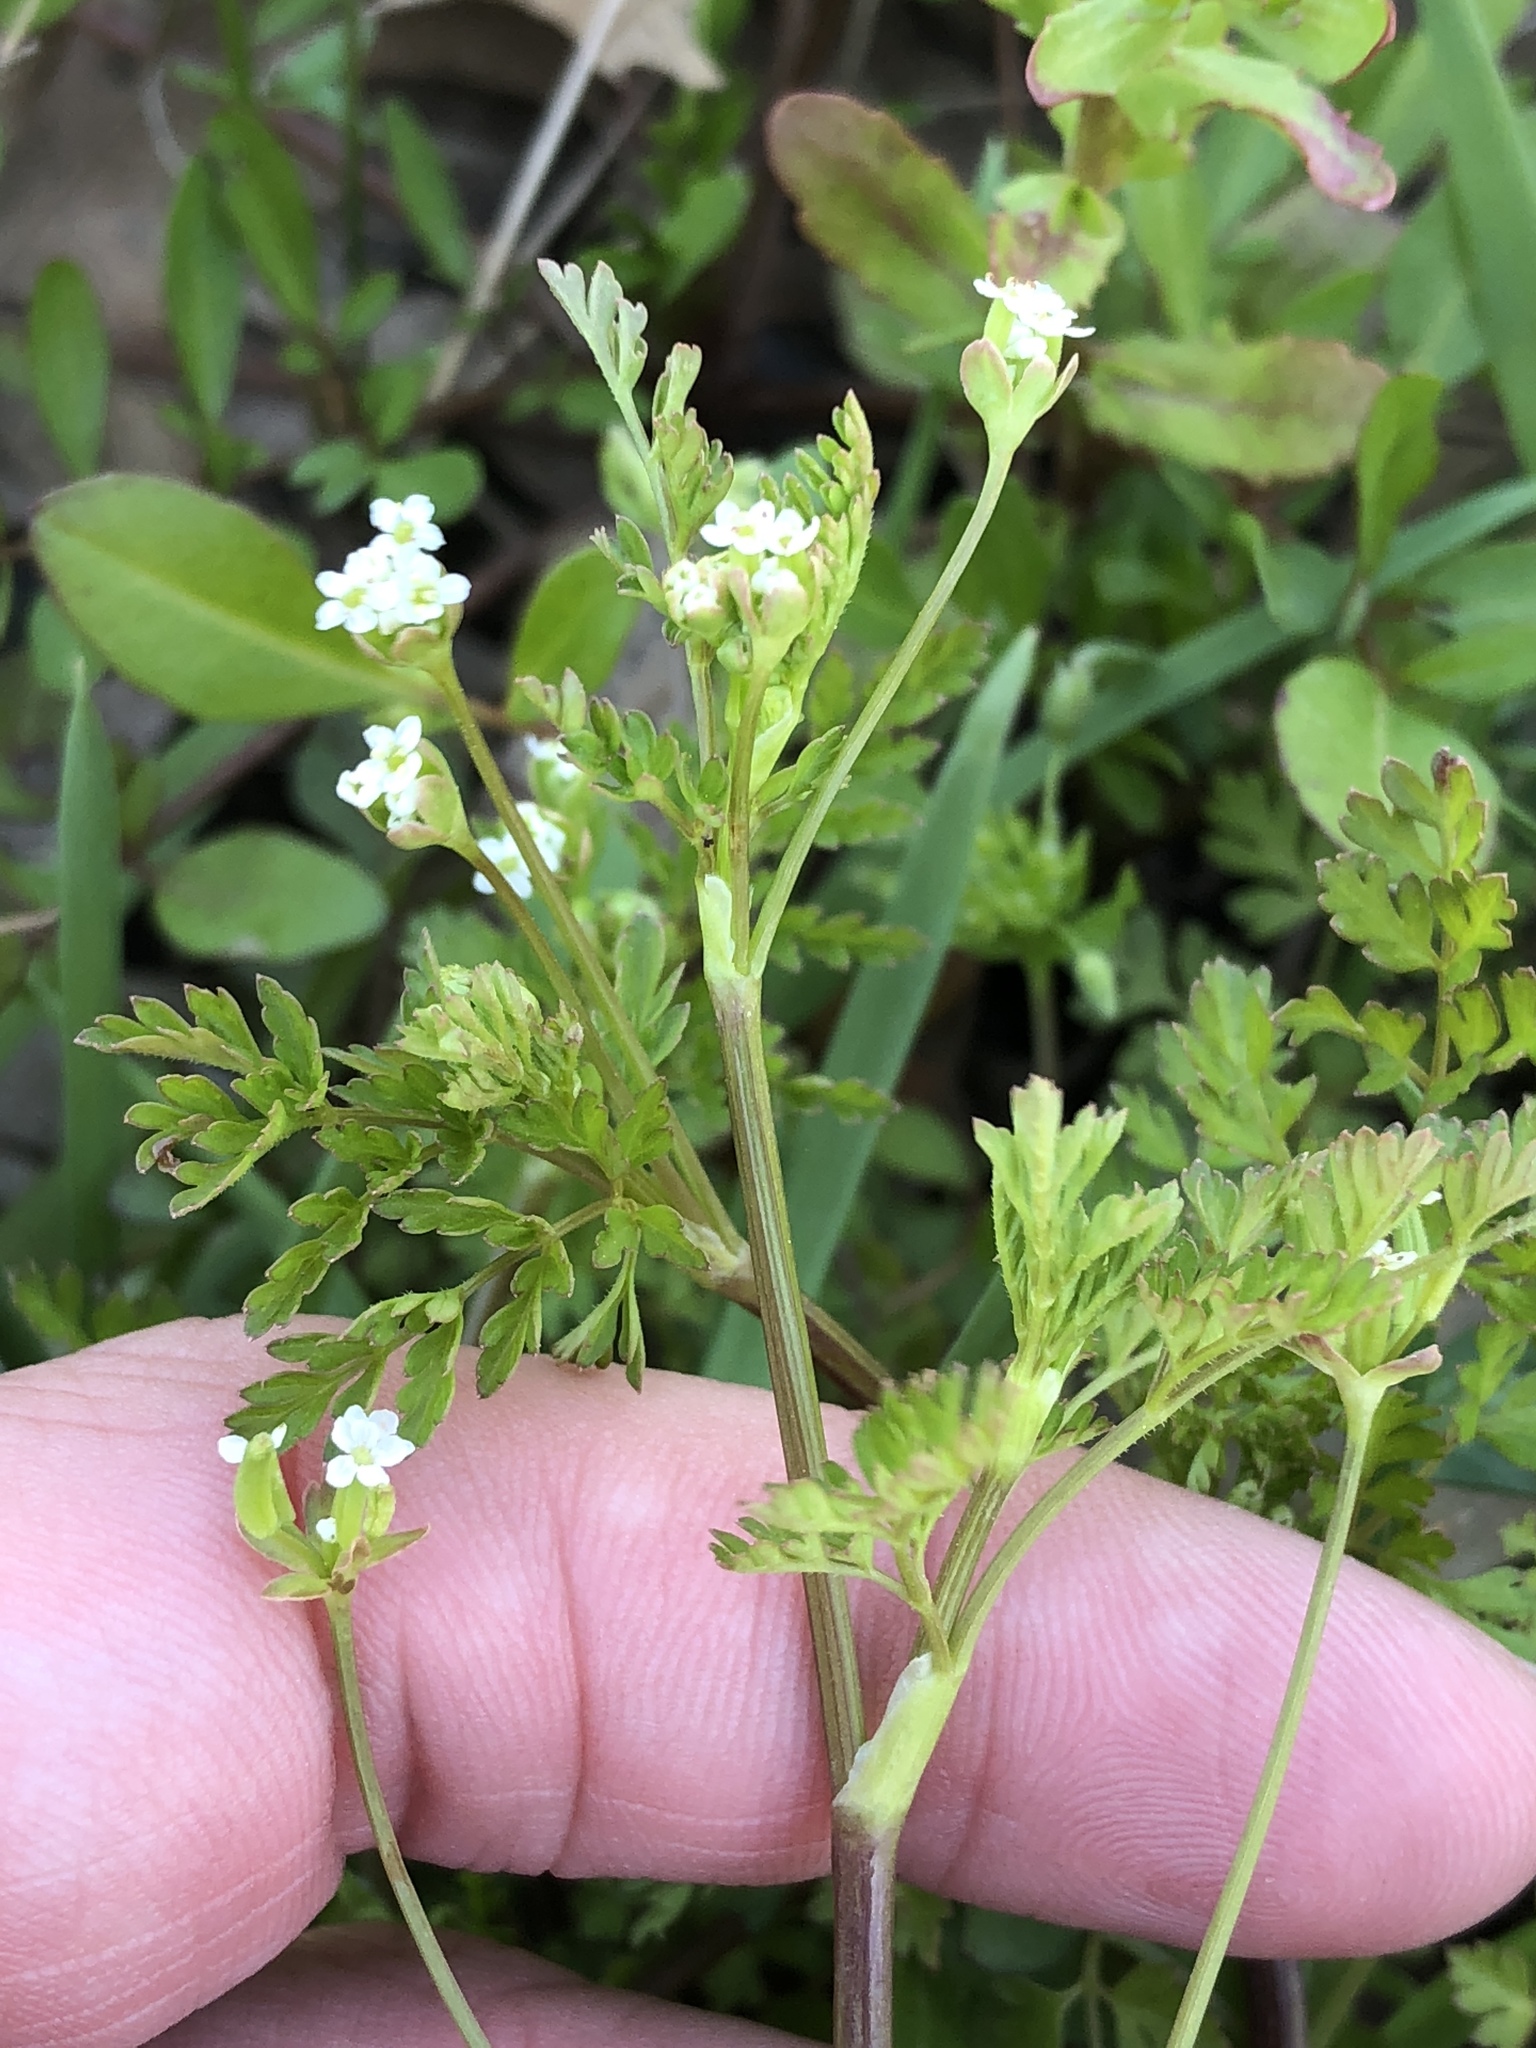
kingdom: Plantae
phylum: Tracheophyta
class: Magnoliopsida
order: Apiales
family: Apiaceae
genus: Chaerophyllum
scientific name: Chaerophyllum tainturieri
